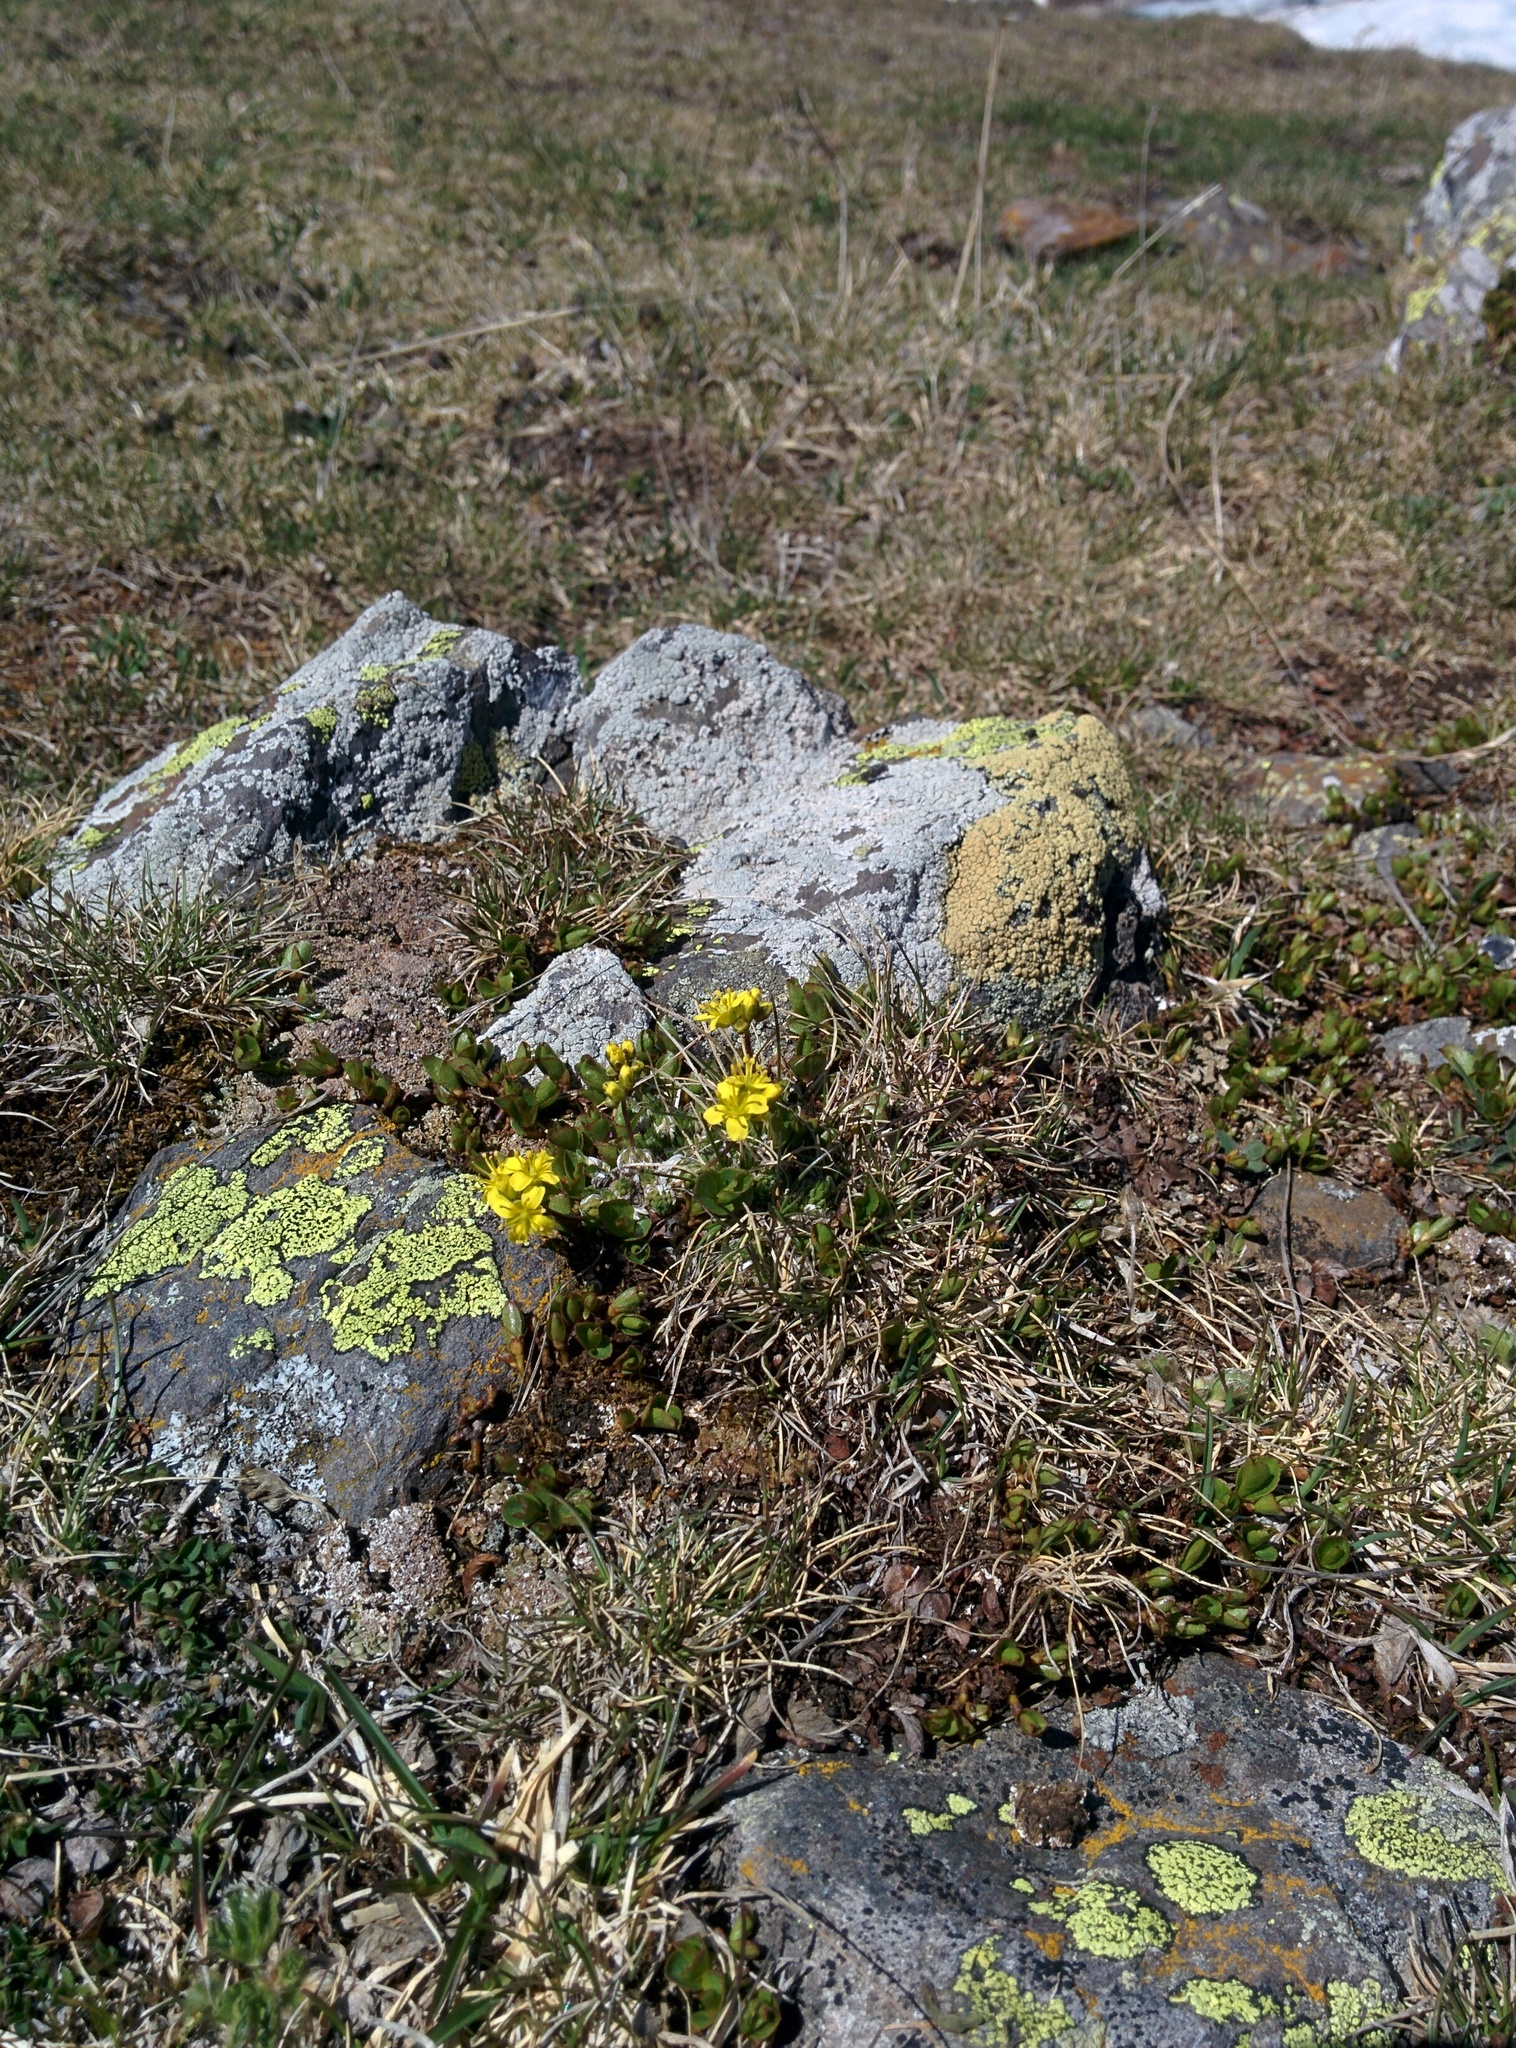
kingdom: Plantae
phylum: Tracheophyta
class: Magnoliopsida
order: Brassicales
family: Brassicaceae
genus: Draba
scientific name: Draba aizoides
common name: Yellow whitlowgrass
